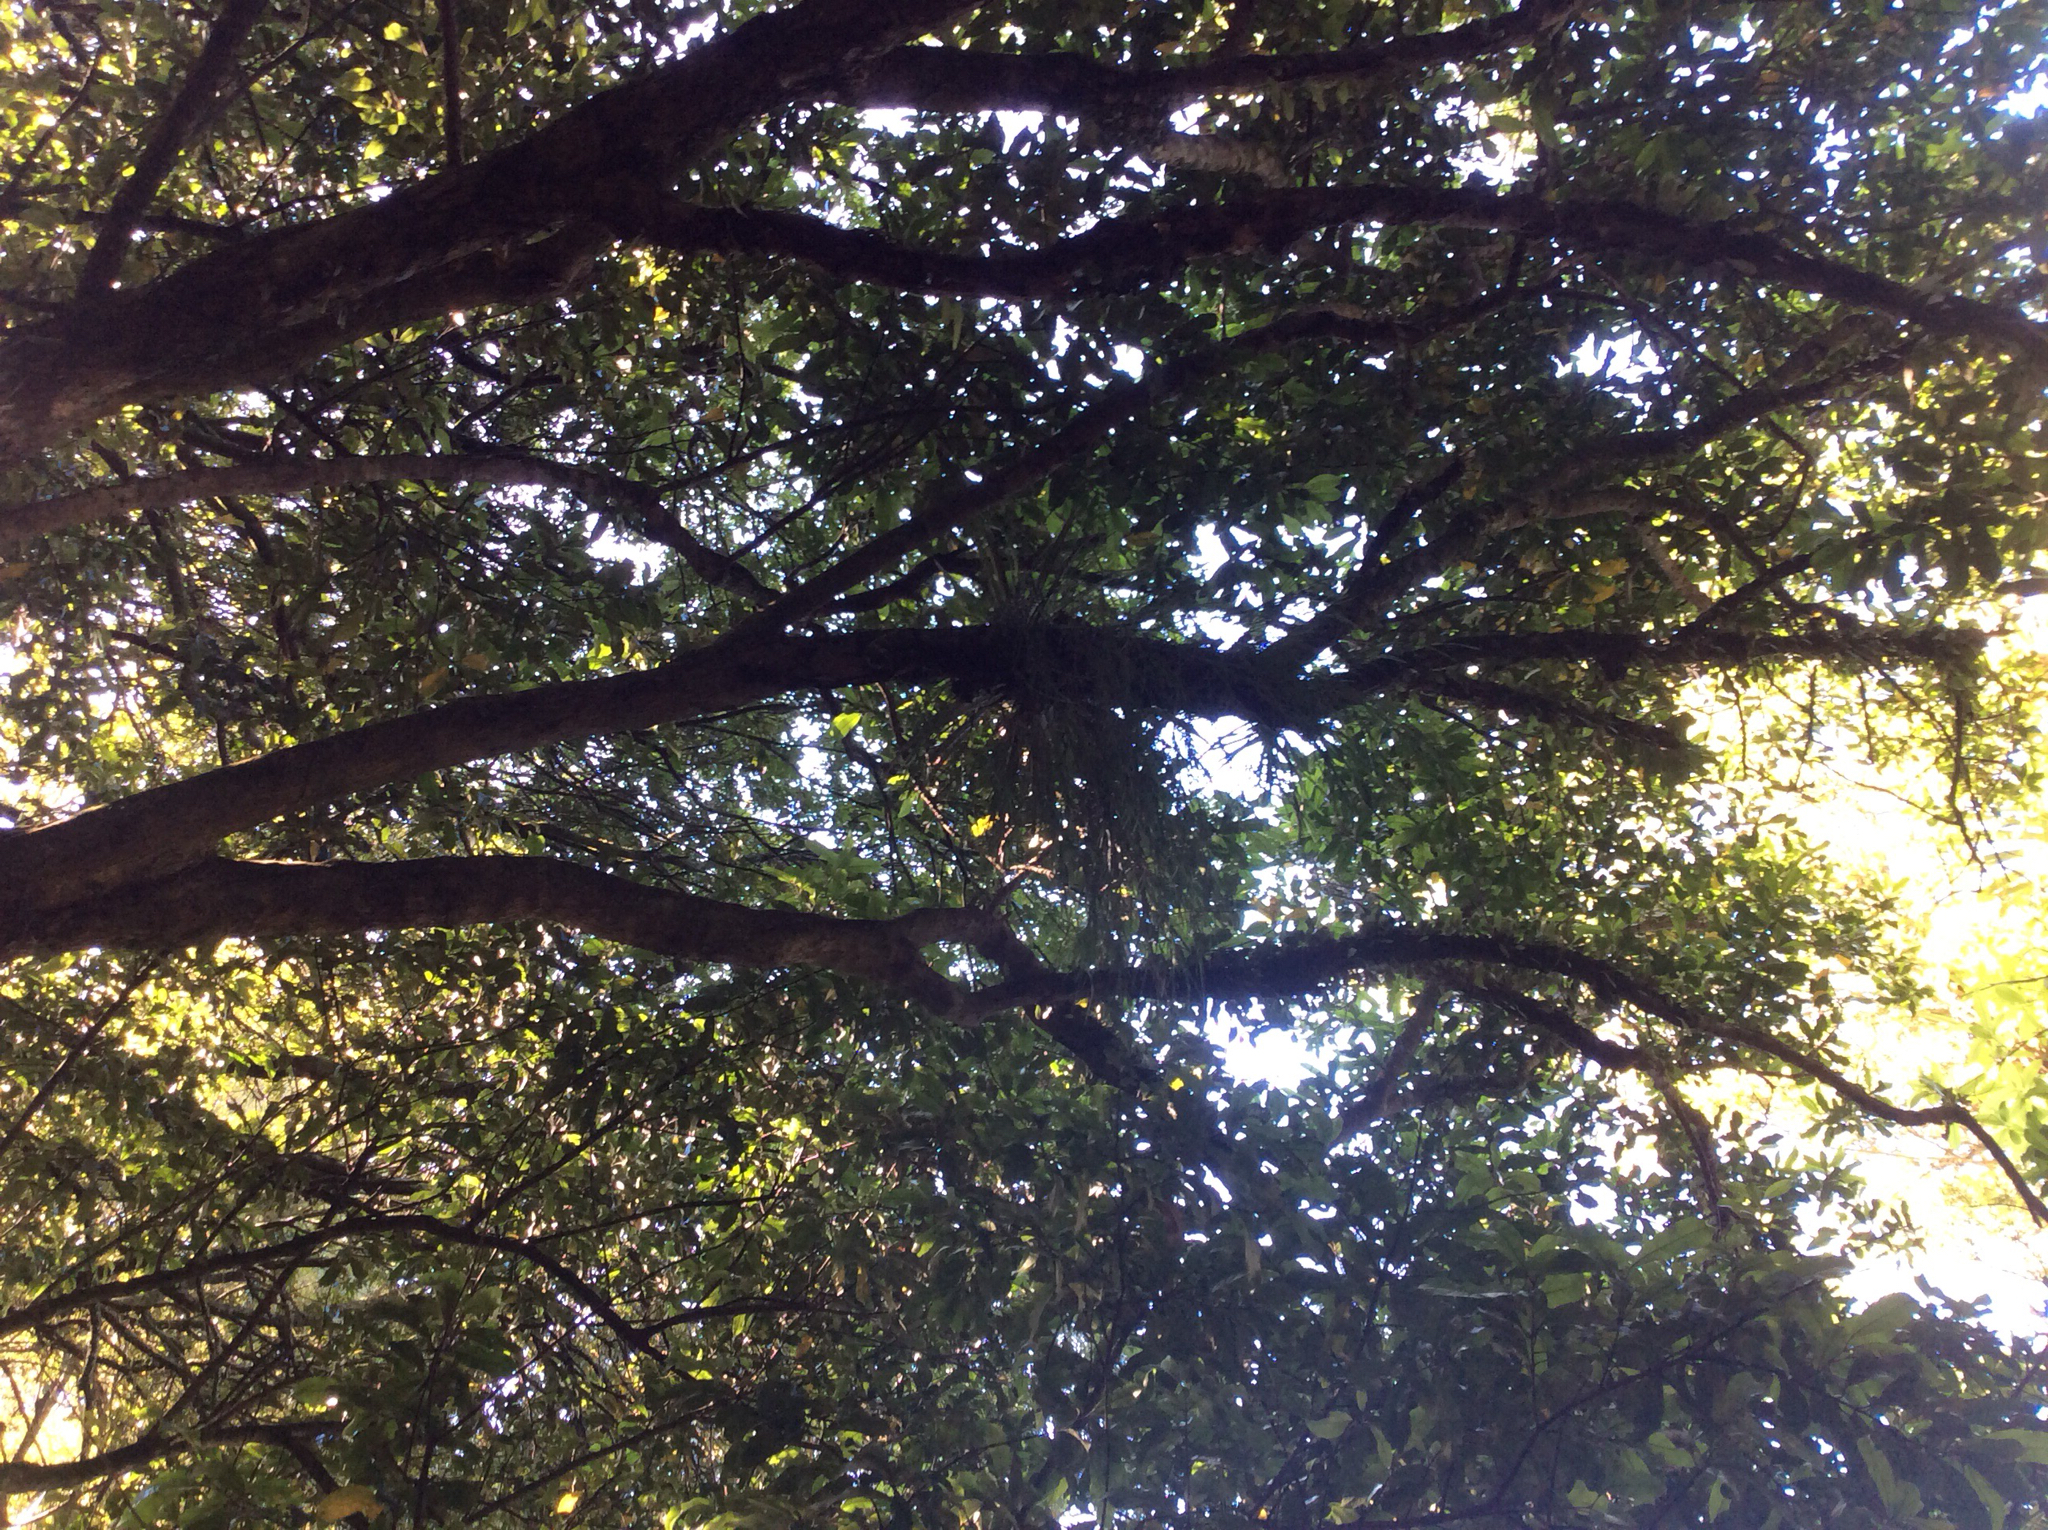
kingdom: Plantae
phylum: Tracheophyta
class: Liliopsida
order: Asparagales
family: Orchidaceae
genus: Earina
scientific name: Earina mucronata
